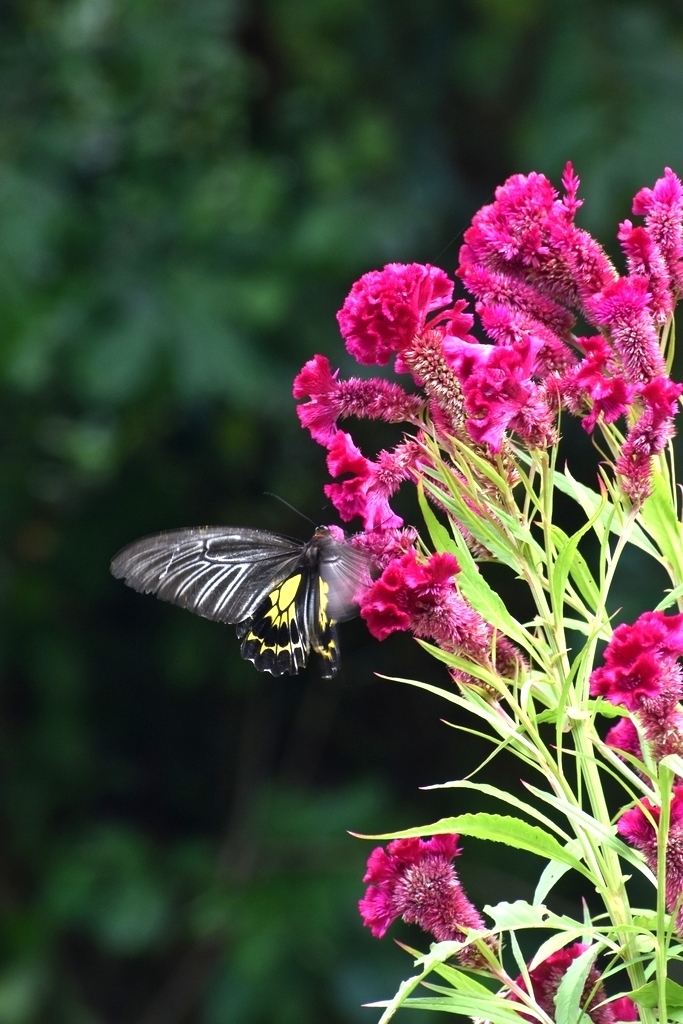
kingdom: Animalia
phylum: Arthropoda
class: Insecta
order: Lepidoptera
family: Papilionidae
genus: Troides
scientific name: Troides minos
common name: Malabar birdwing
